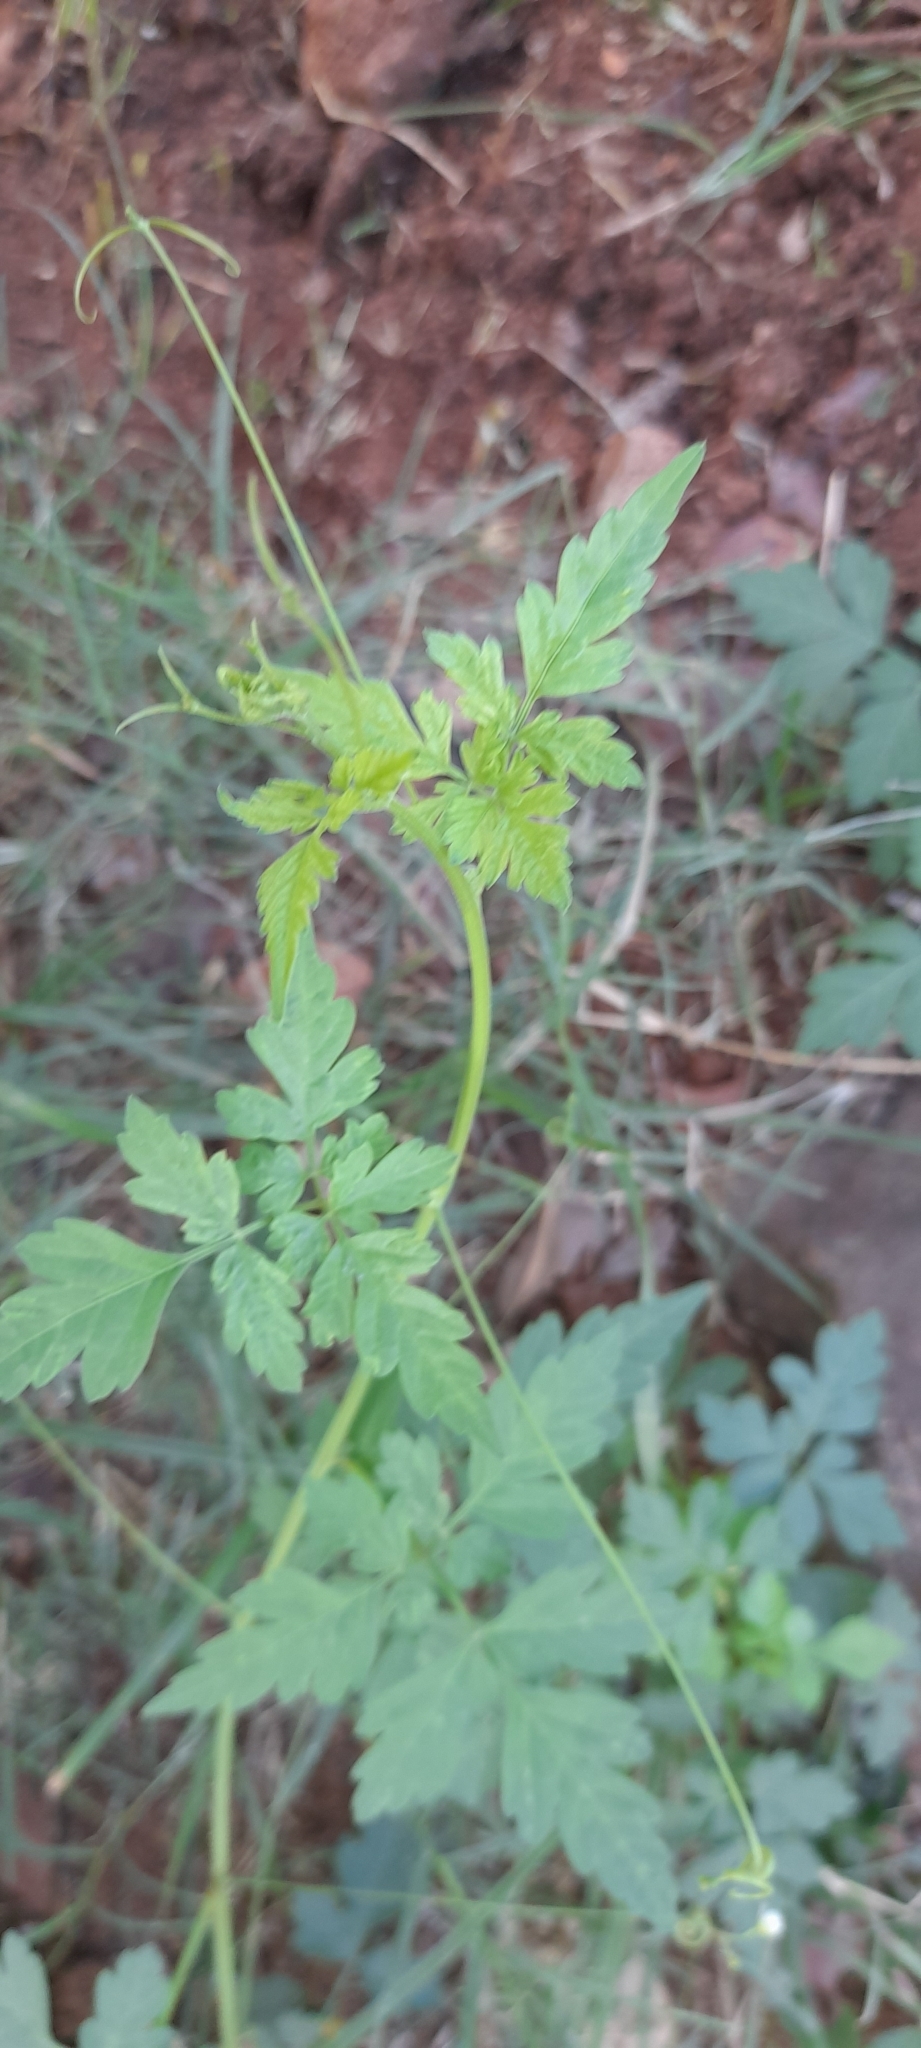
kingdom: Plantae
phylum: Tracheophyta
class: Magnoliopsida
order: Sapindales
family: Sapindaceae
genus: Cardiospermum
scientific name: Cardiospermum halicacabum
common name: Balloon vine
